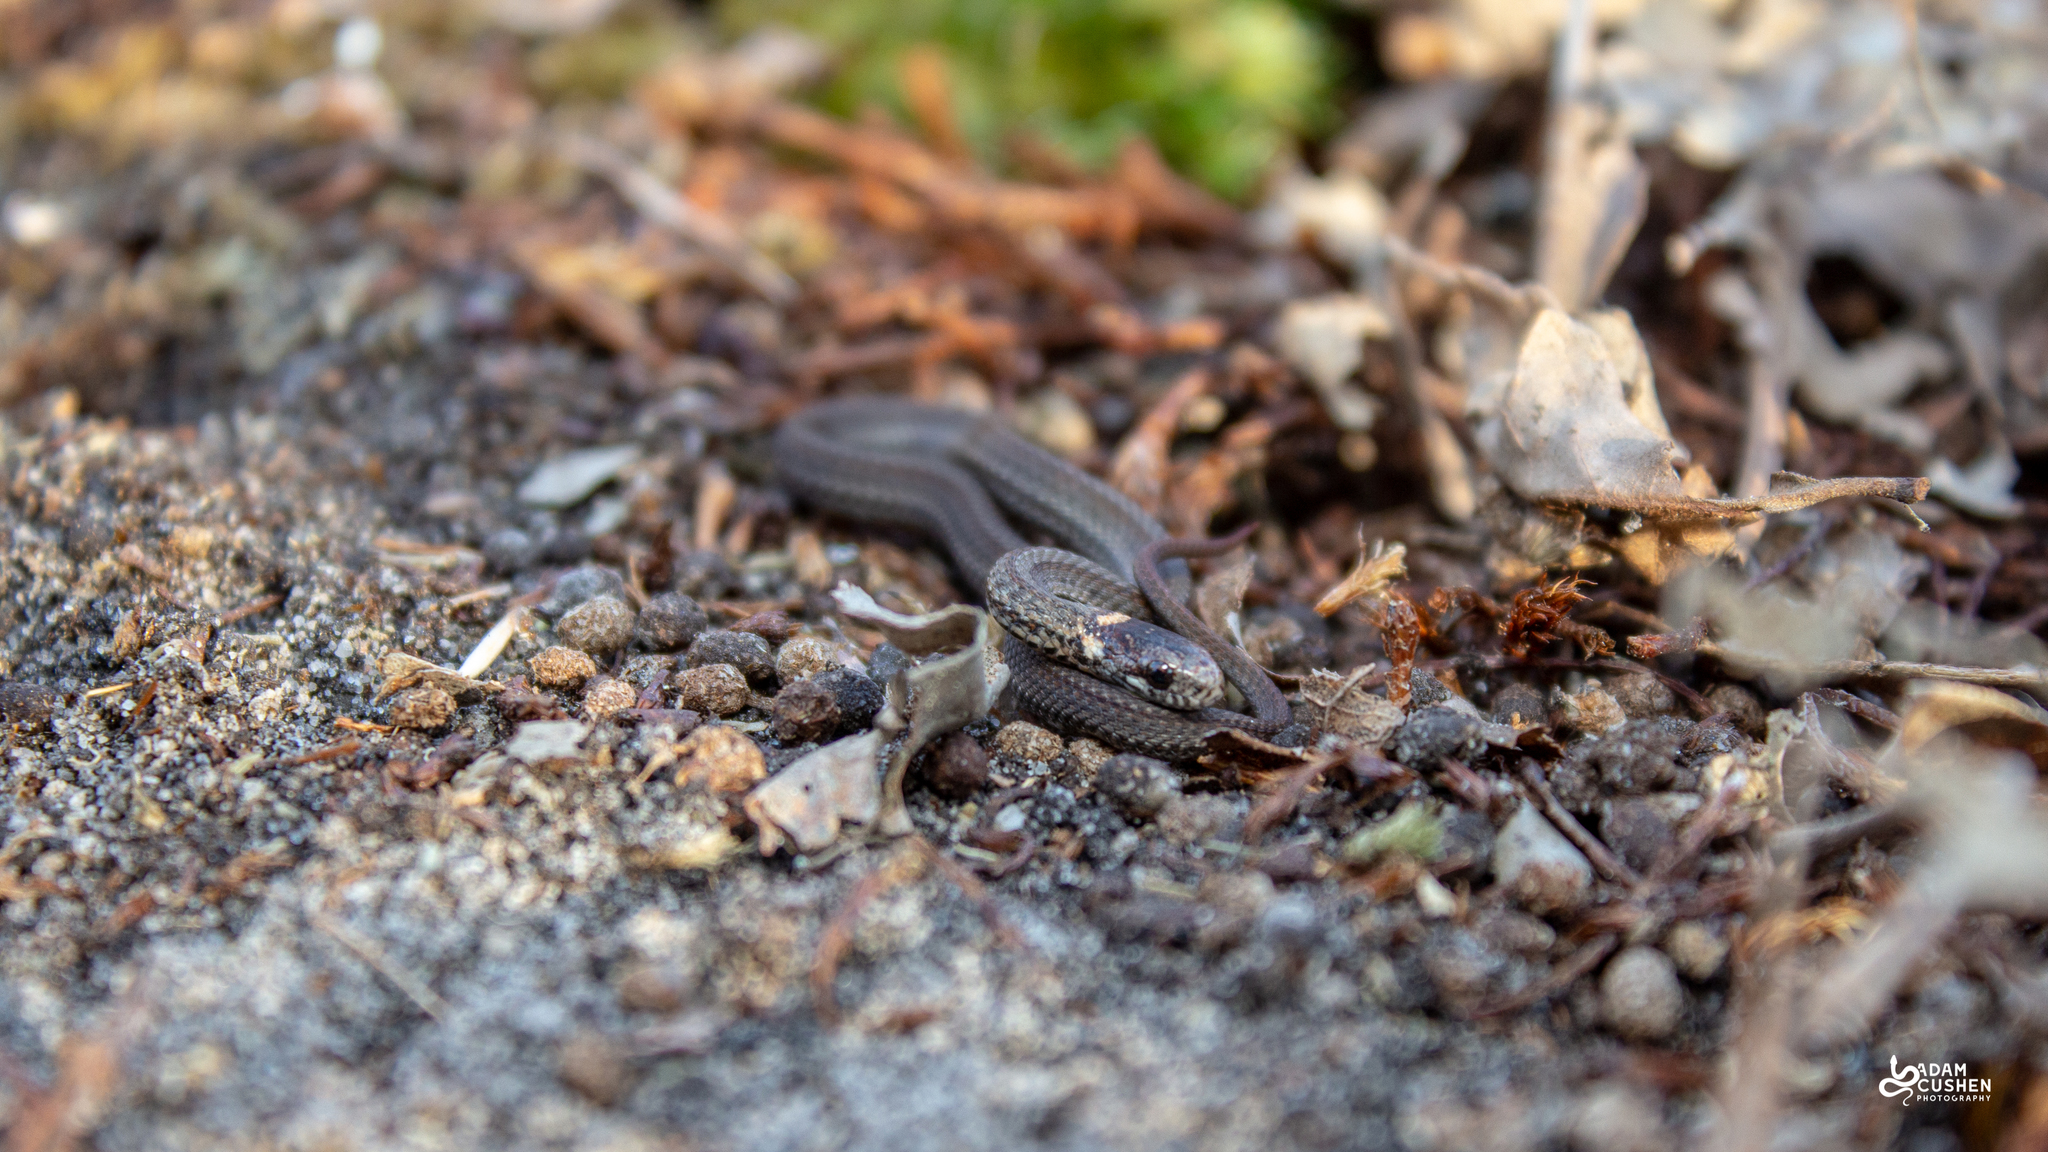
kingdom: Animalia
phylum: Chordata
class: Squamata
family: Colubridae
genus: Storeria
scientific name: Storeria occipitomaculata
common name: Redbelly snake
